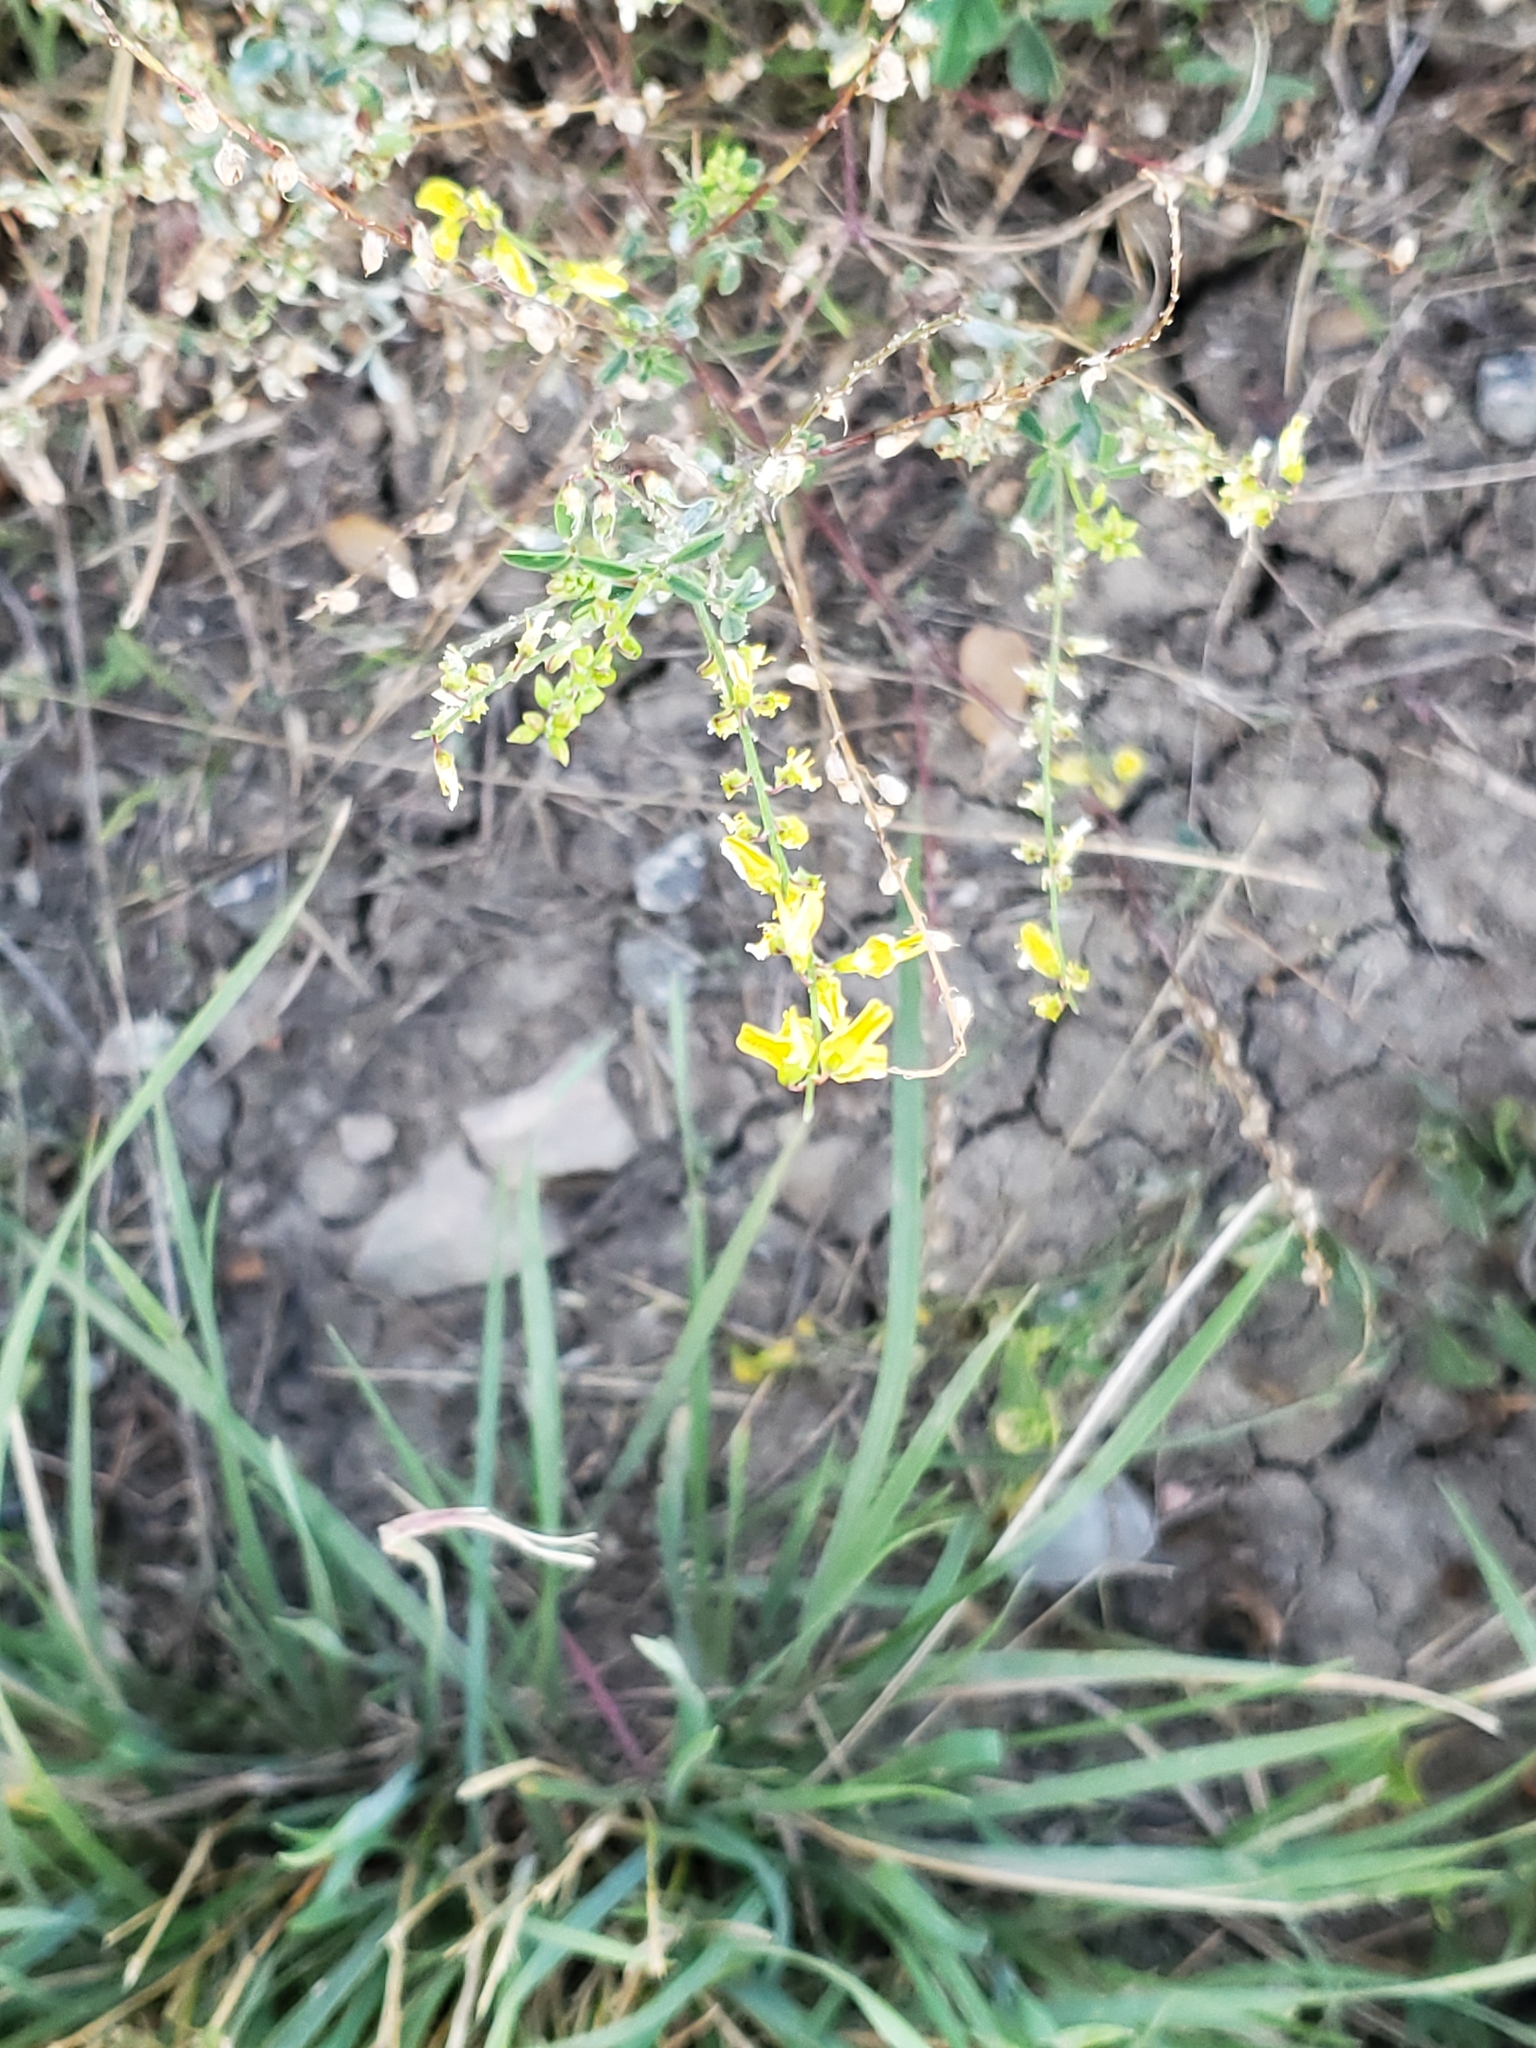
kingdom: Plantae
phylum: Tracheophyta
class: Magnoliopsida
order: Fabales
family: Fabaceae
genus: Melilotus
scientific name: Melilotus officinalis
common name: Sweetclover
